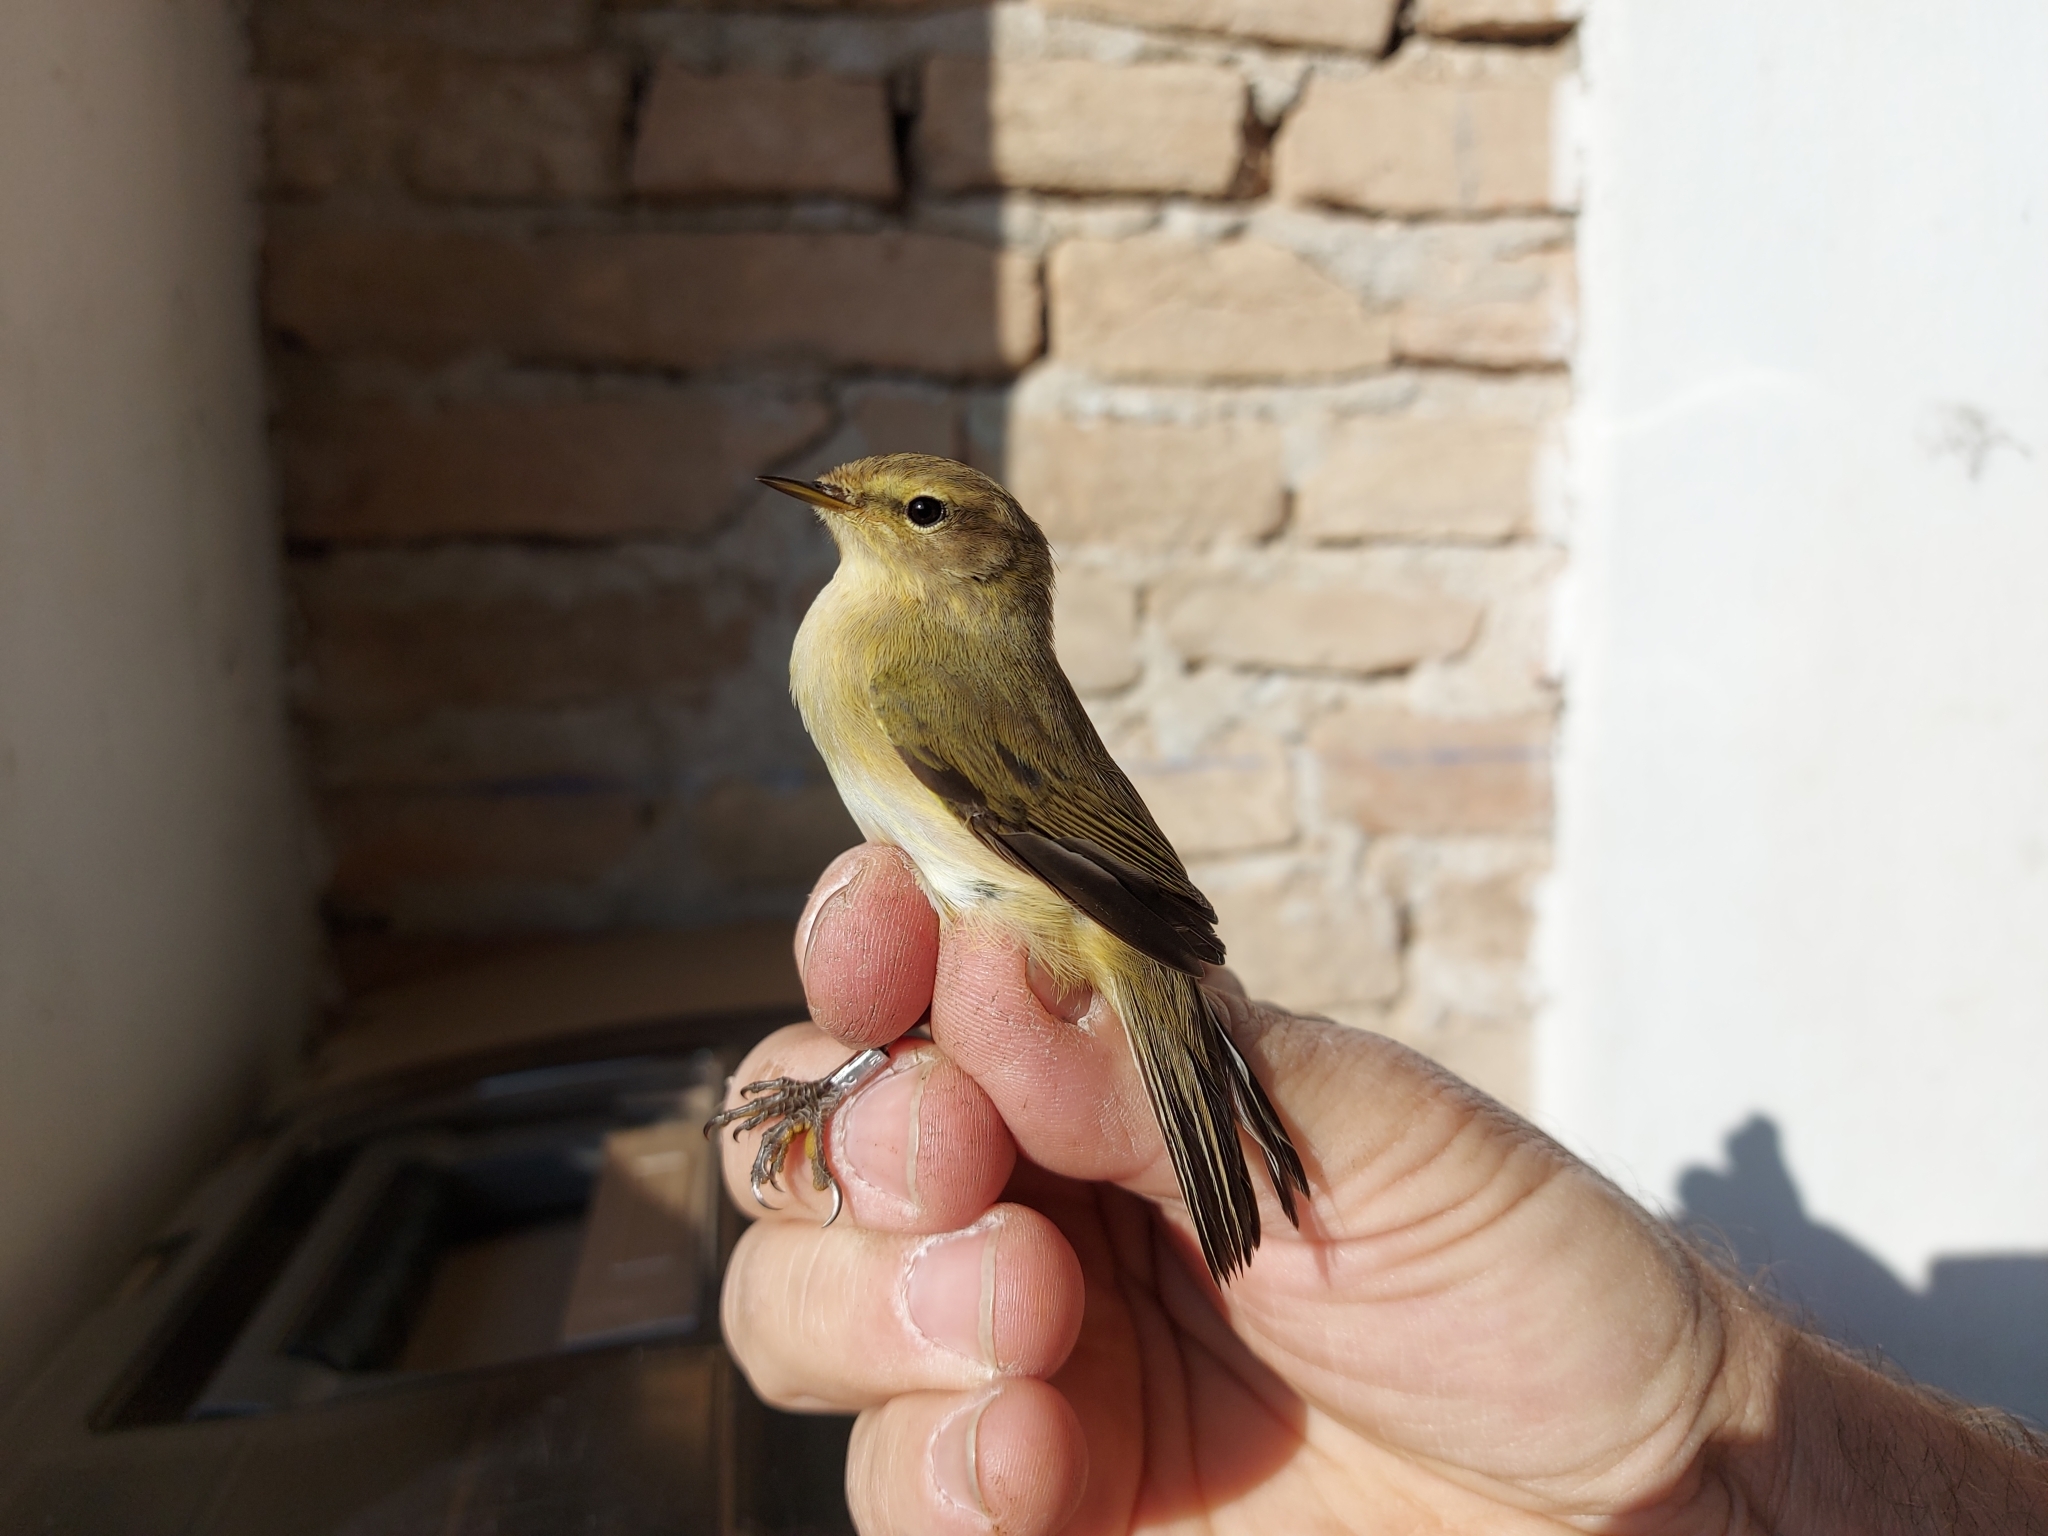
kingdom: Animalia
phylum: Chordata
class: Aves
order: Passeriformes
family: Phylloscopidae
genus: Phylloscopus
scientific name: Phylloscopus collybita
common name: Common chiffchaff
